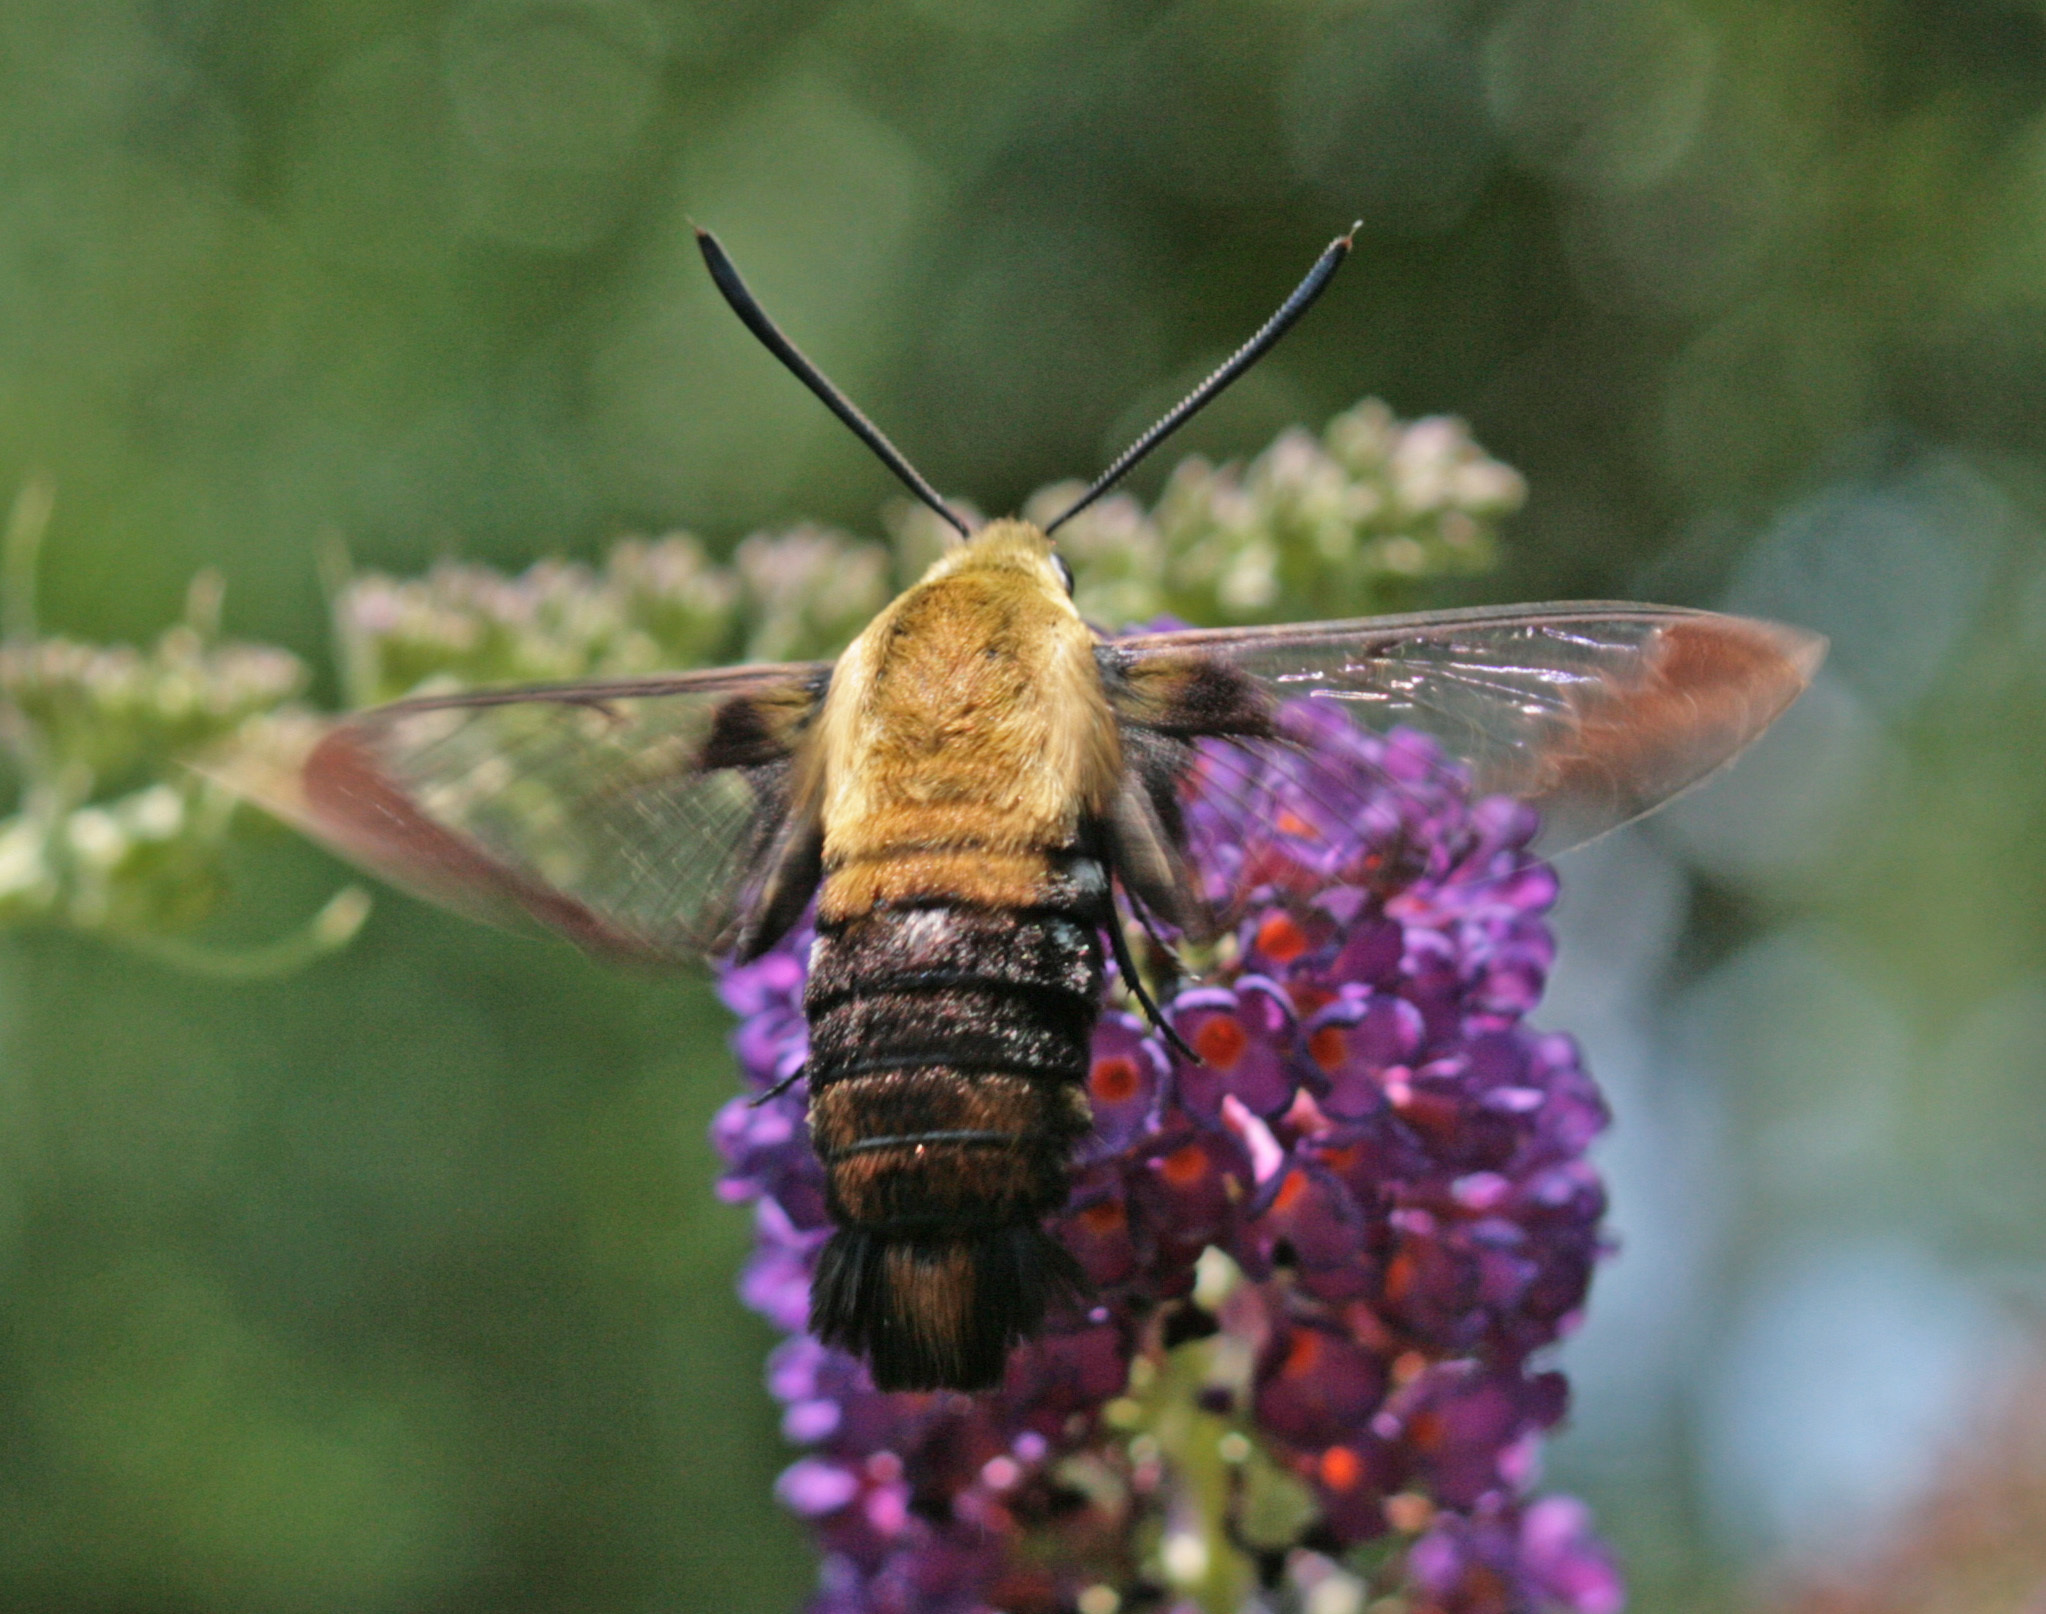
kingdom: Animalia
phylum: Arthropoda
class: Insecta
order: Lepidoptera
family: Sphingidae
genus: Hemaris
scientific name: Hemaris diffinis
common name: Bumblebee moth
